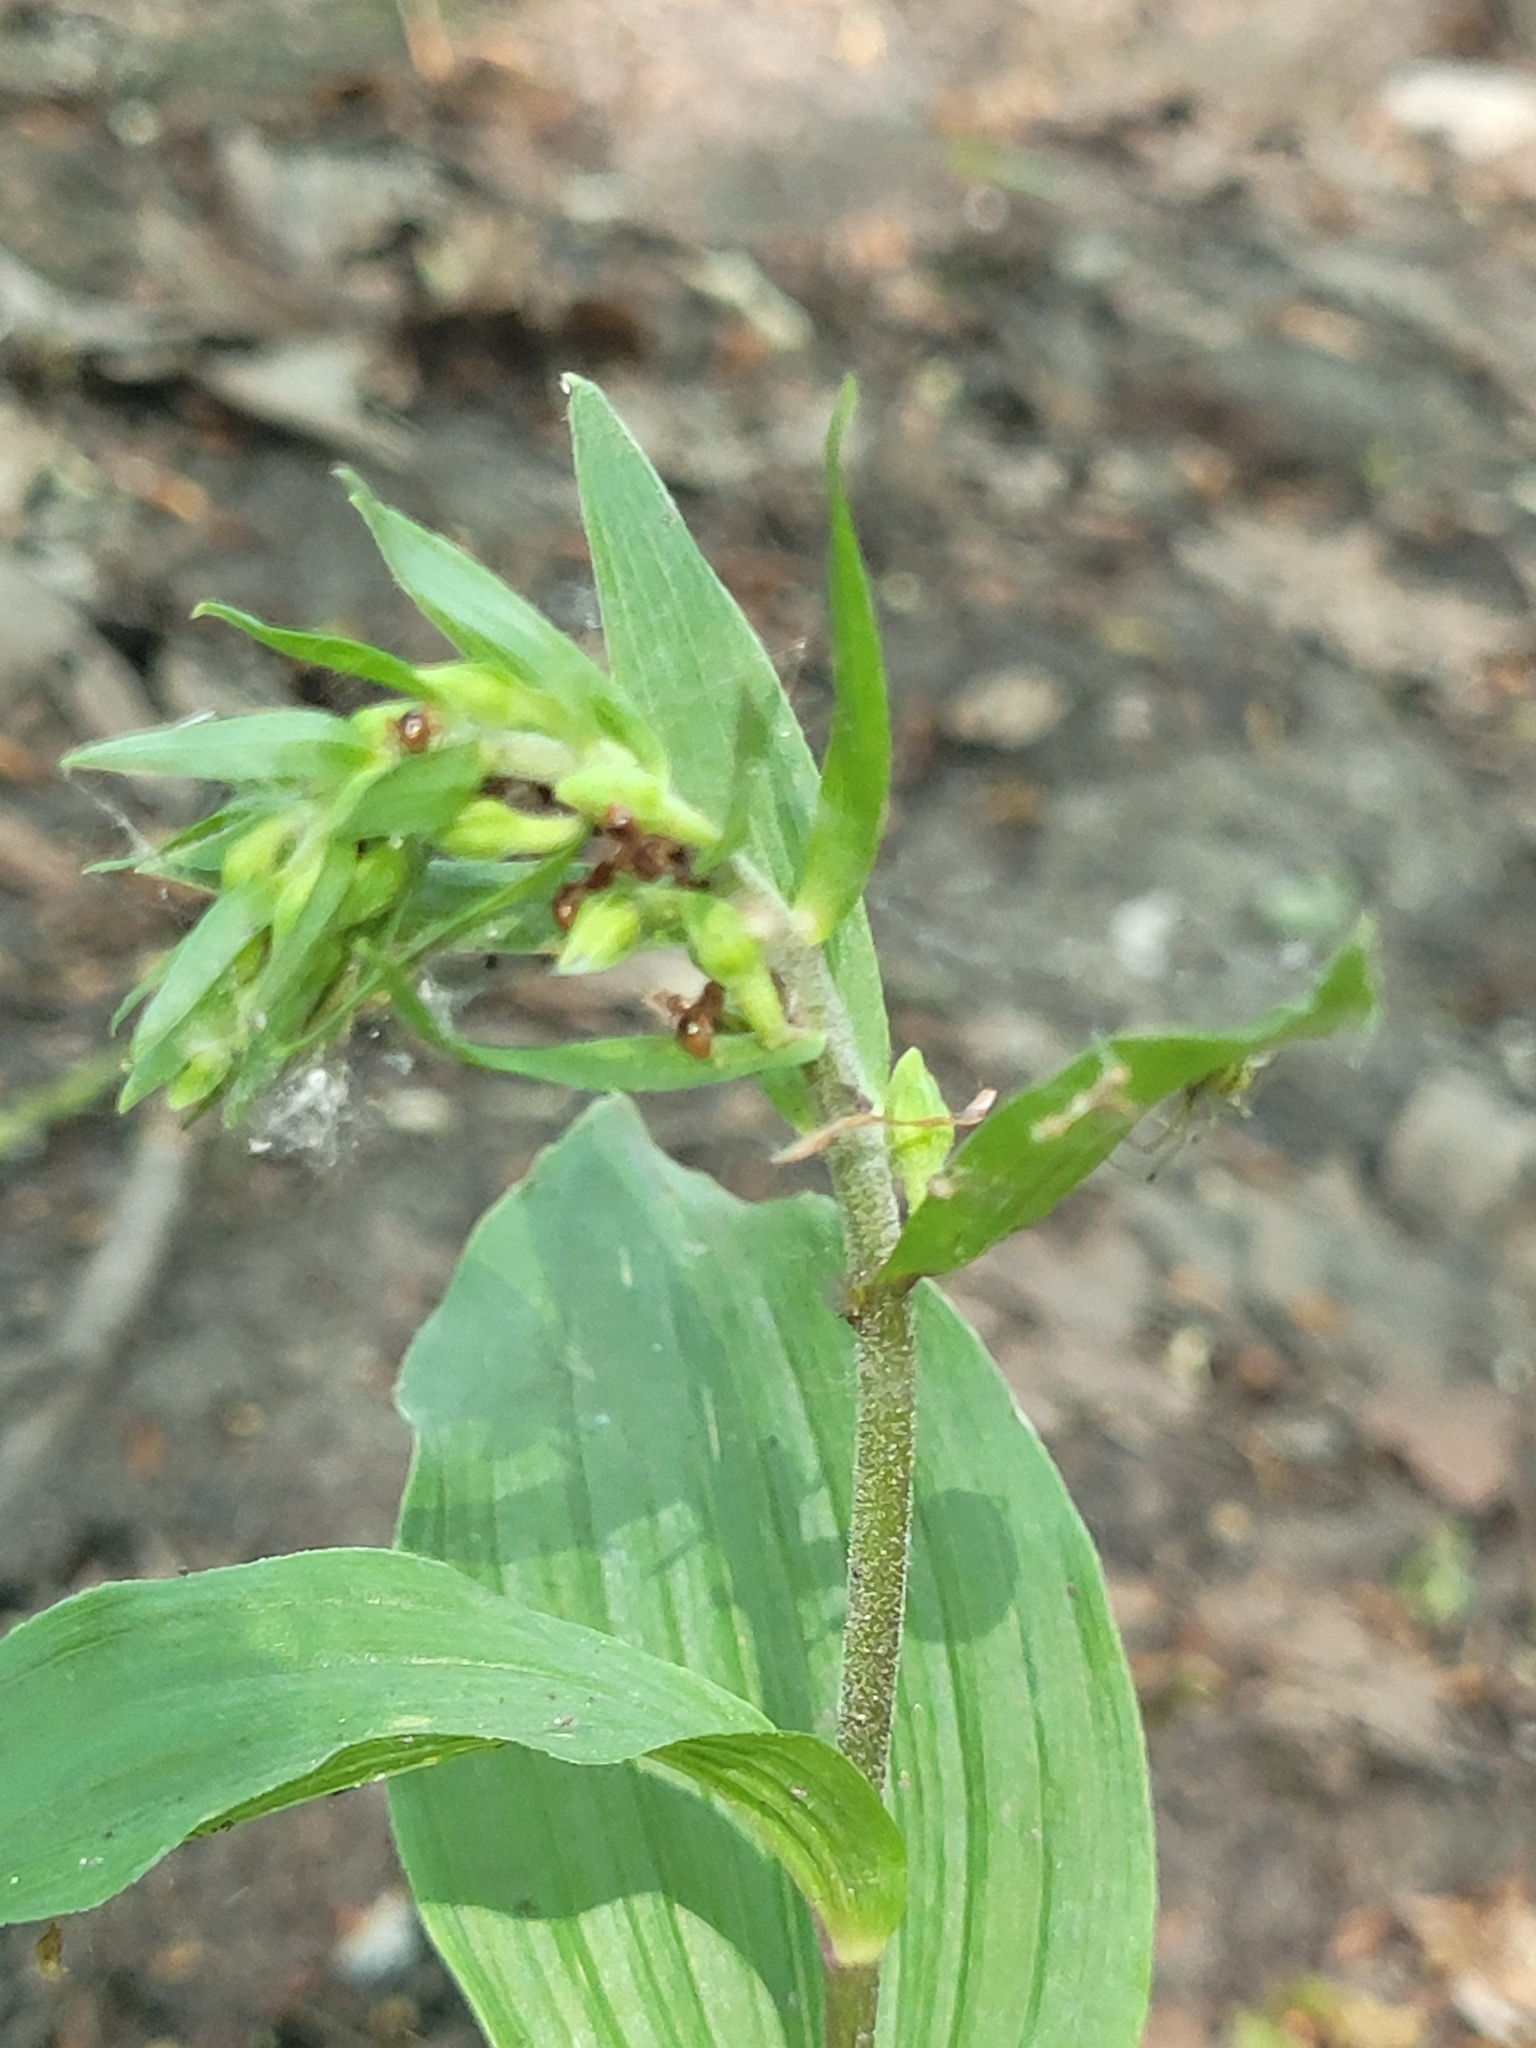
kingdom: Plantae
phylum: Tracheophyta
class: Liliopsida
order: Asparagales
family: Orchidaceae
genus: Epipactis
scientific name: Epipactis helleborine
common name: Broad-leaved helleborine
